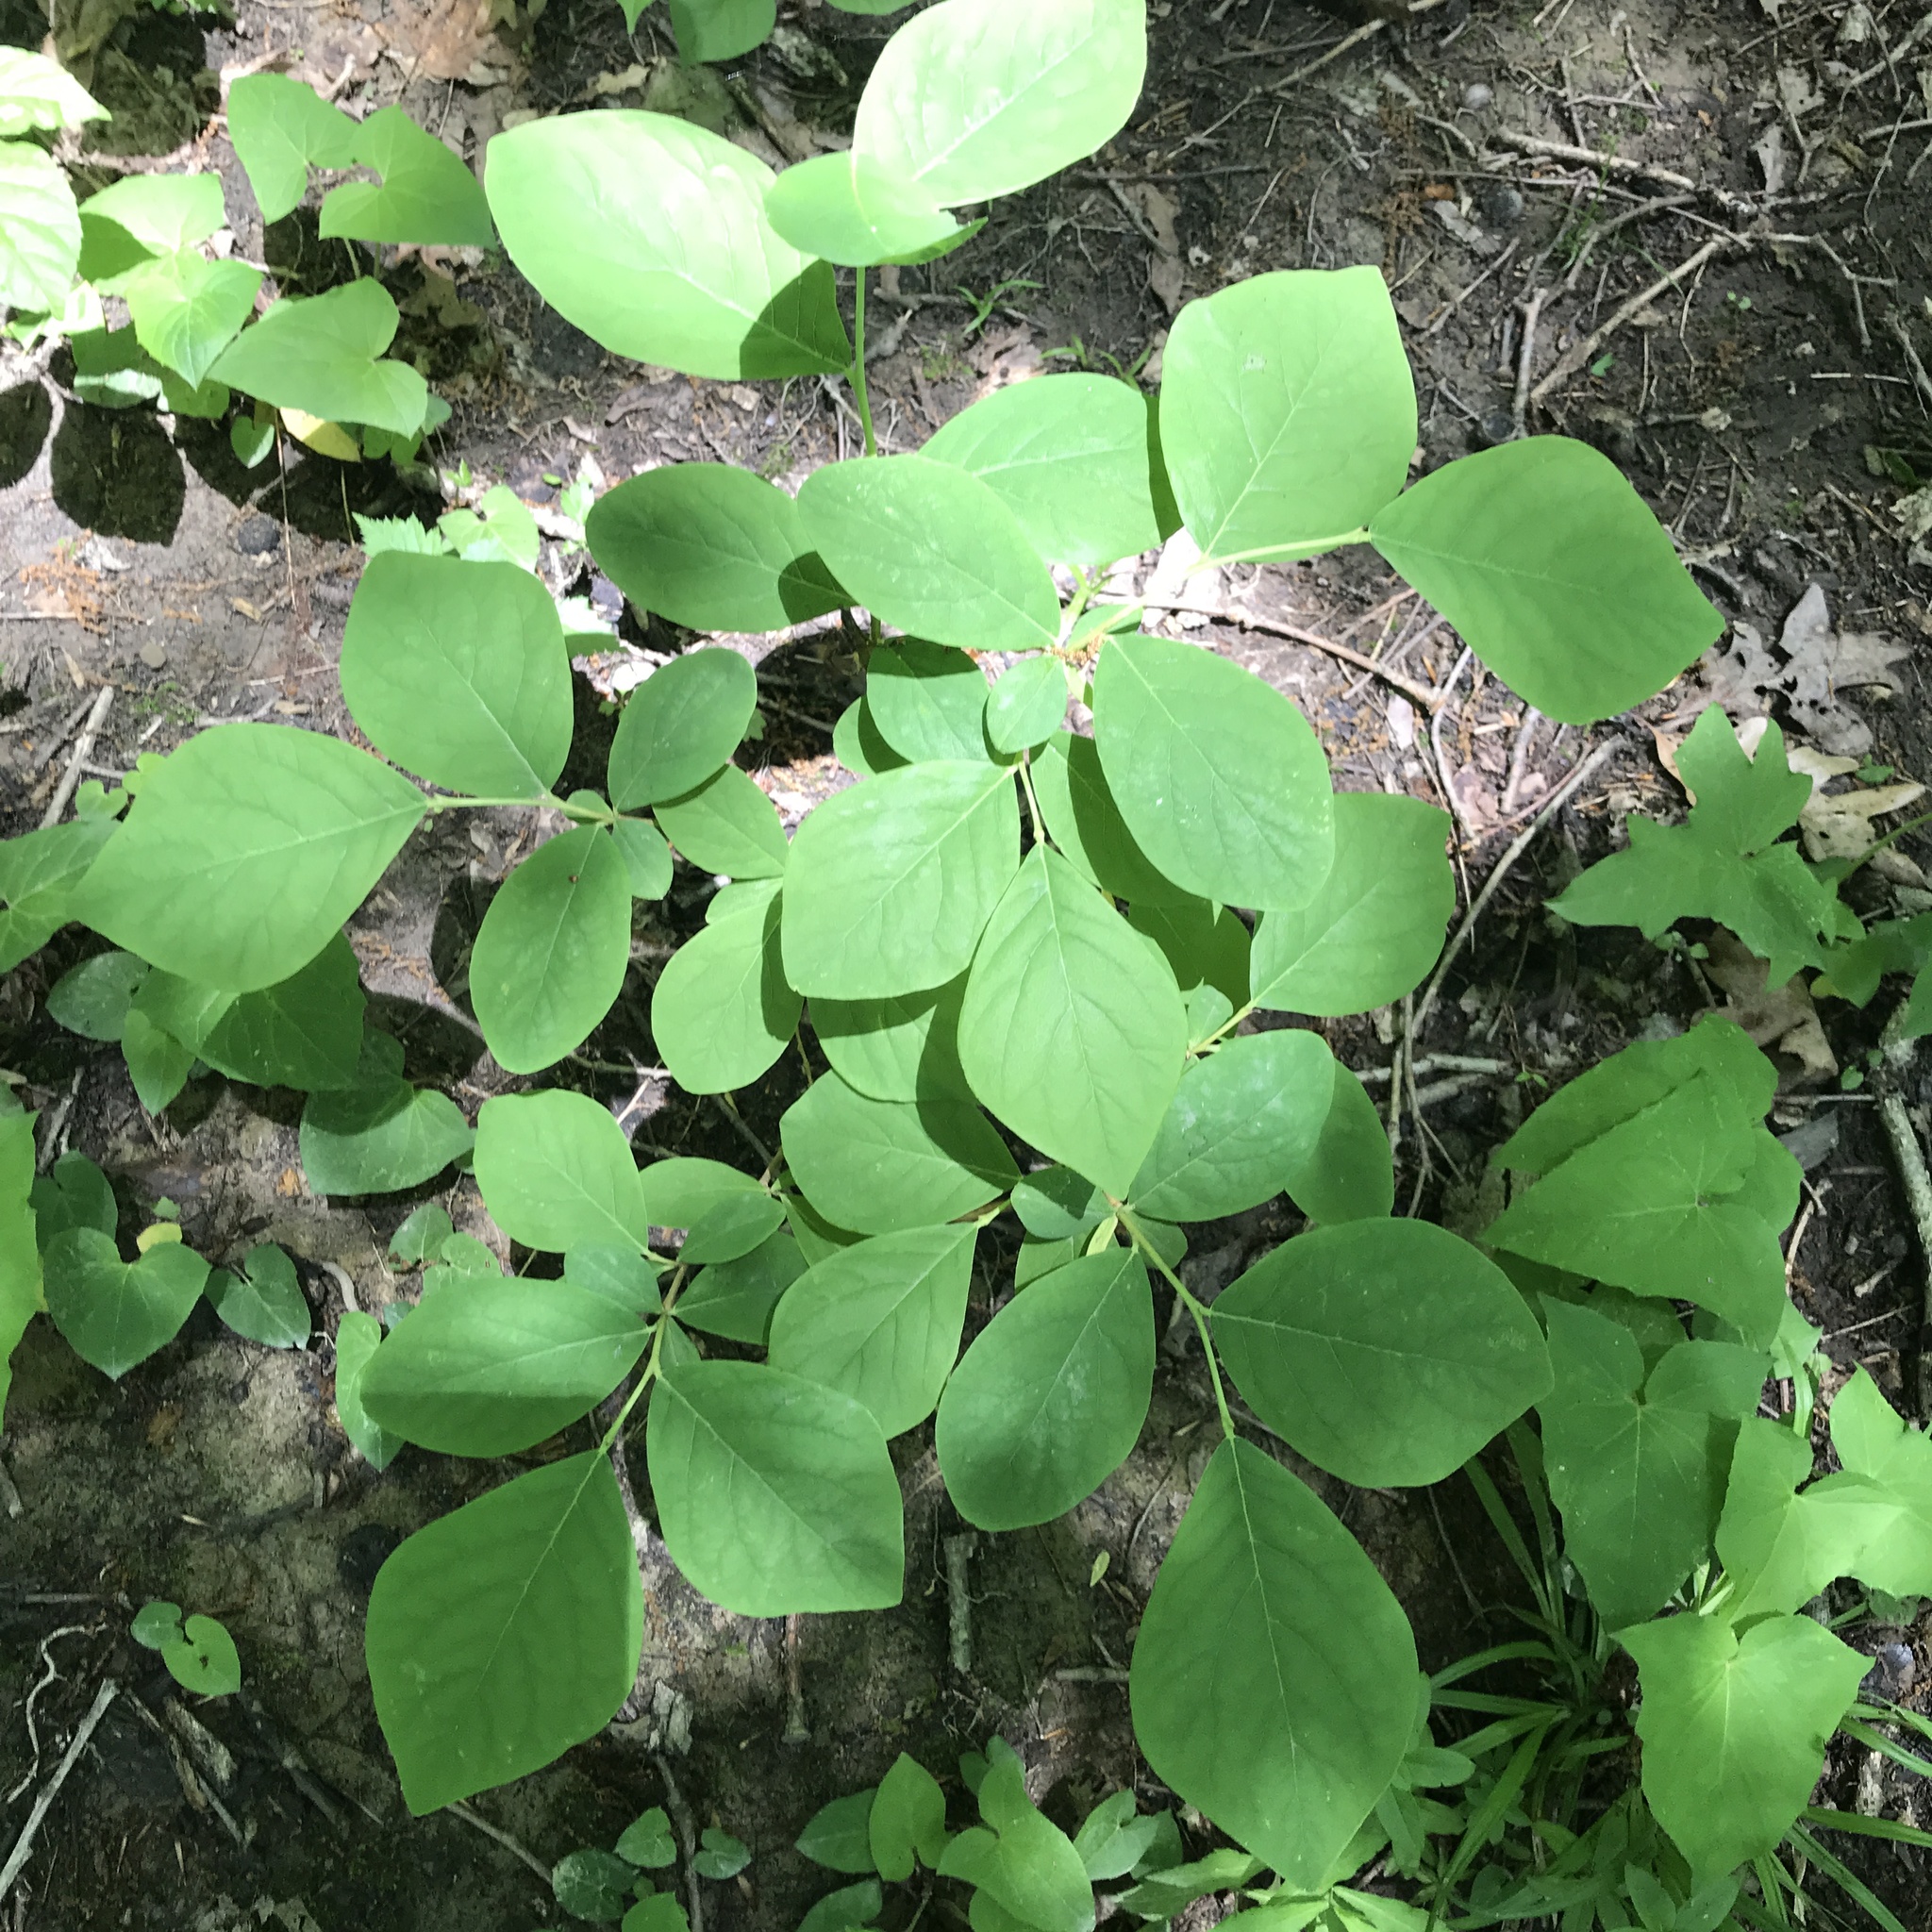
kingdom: Plantae
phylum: Tracheophyta
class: Magnoliopsida
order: Malvales
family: Thymelaeaceae
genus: Dirca
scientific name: Dirca palustris
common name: Leatherwood
